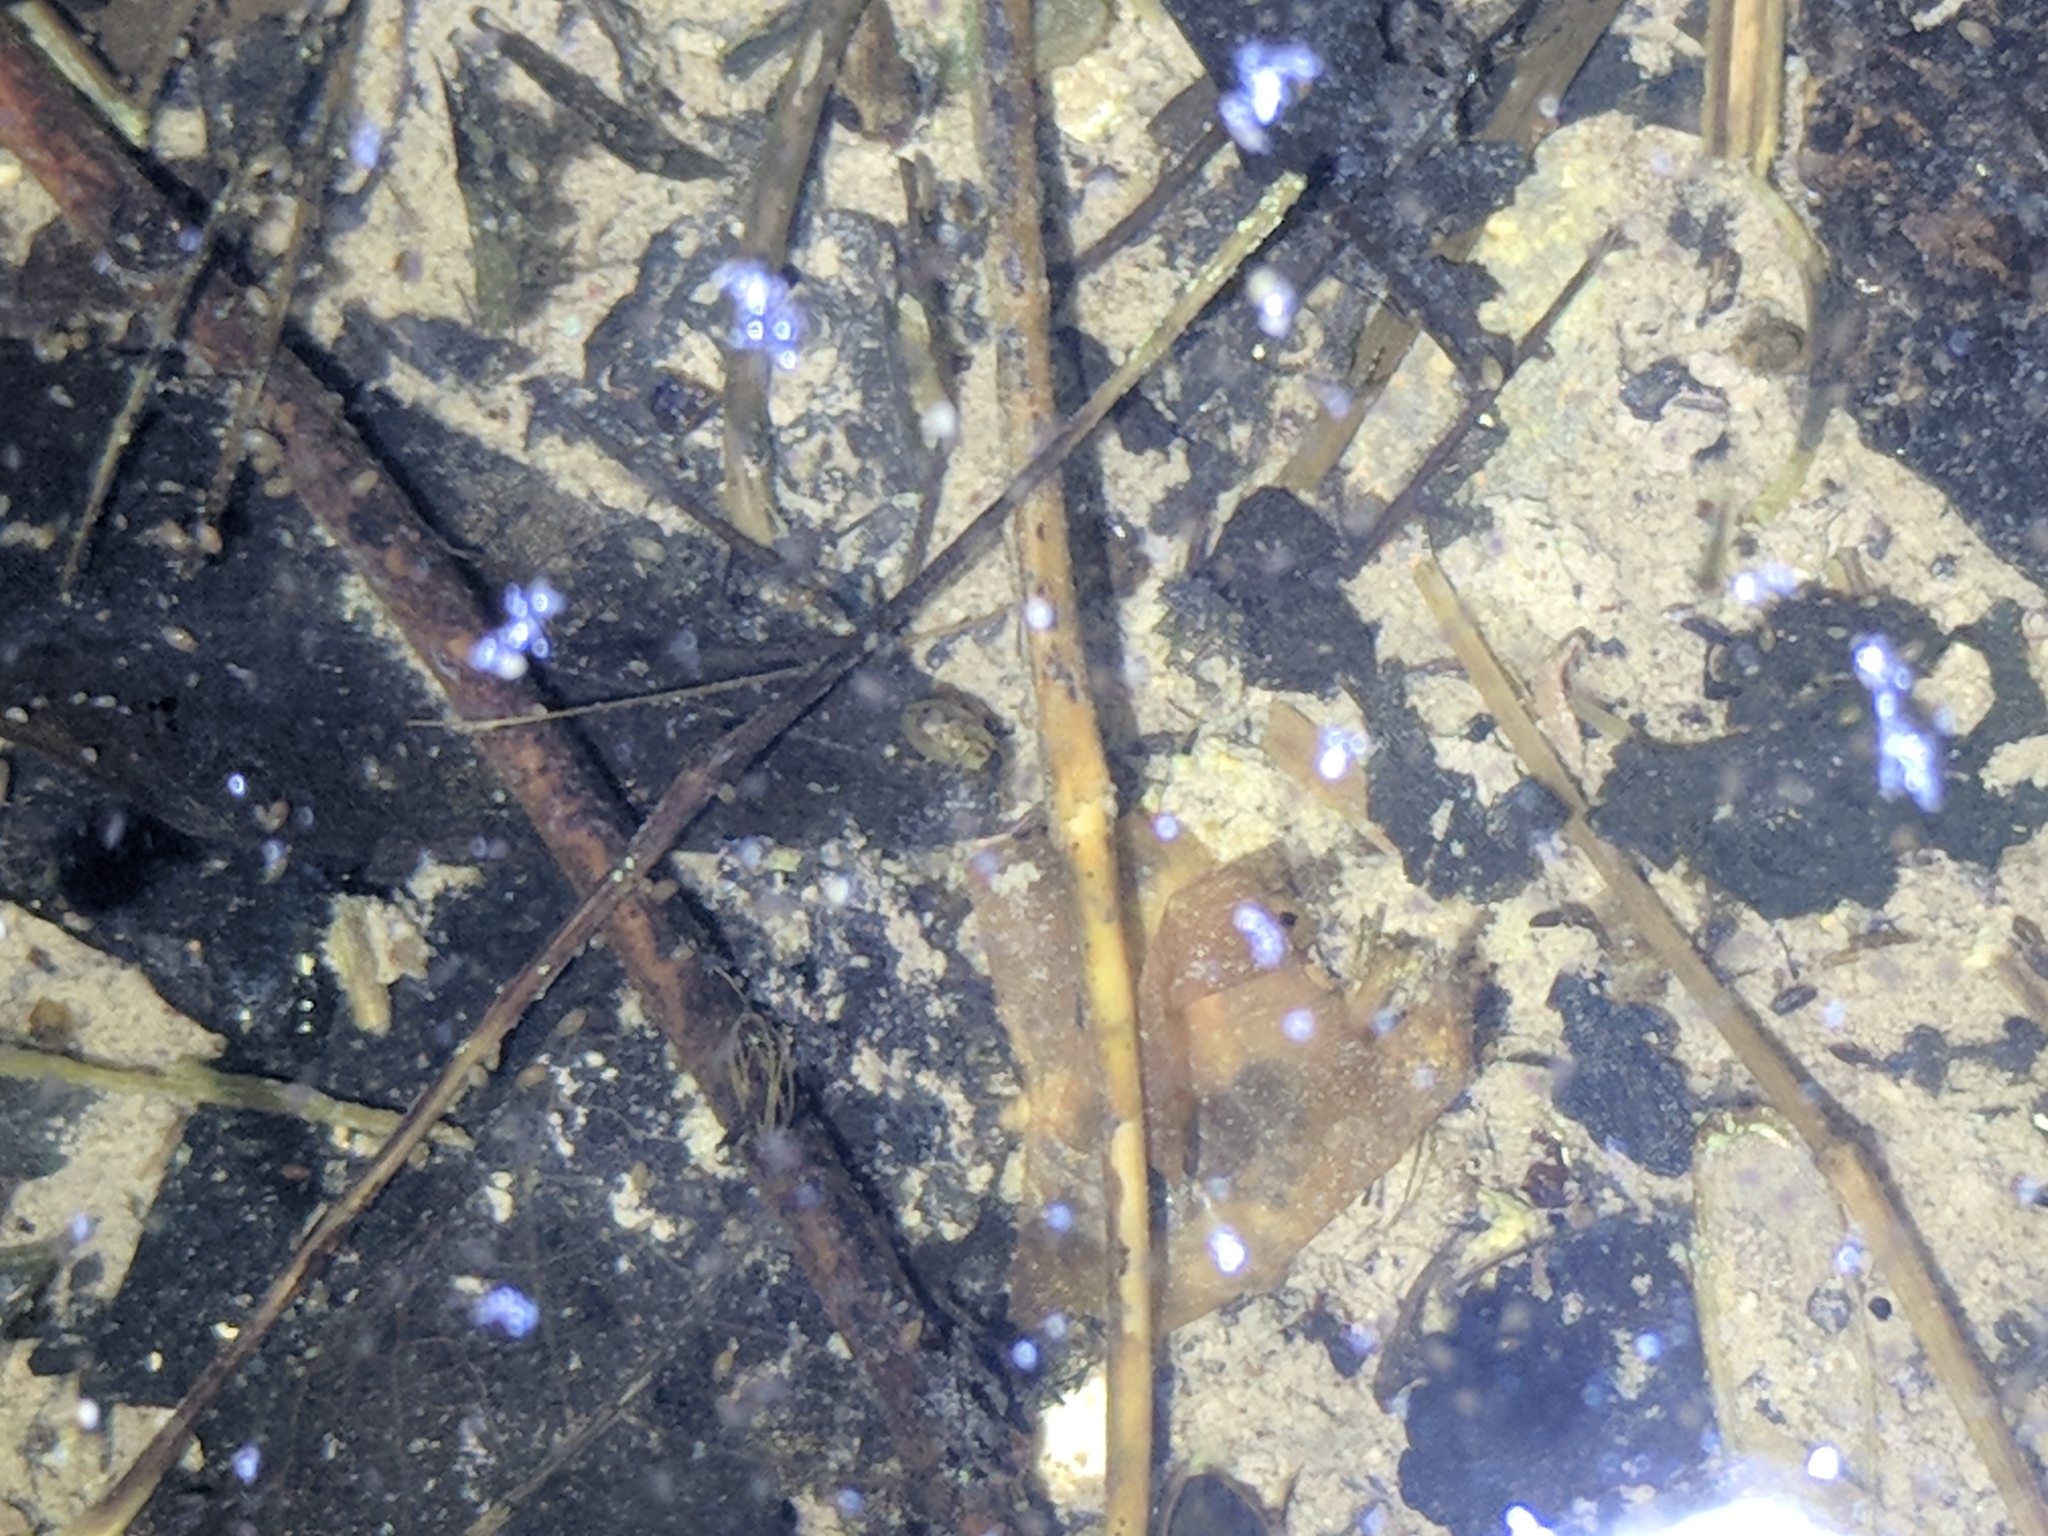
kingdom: Animalia
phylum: Arthropoda
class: Insecta
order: Coleoptera
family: Hydrophilidae
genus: Berosus
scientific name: Berosus
